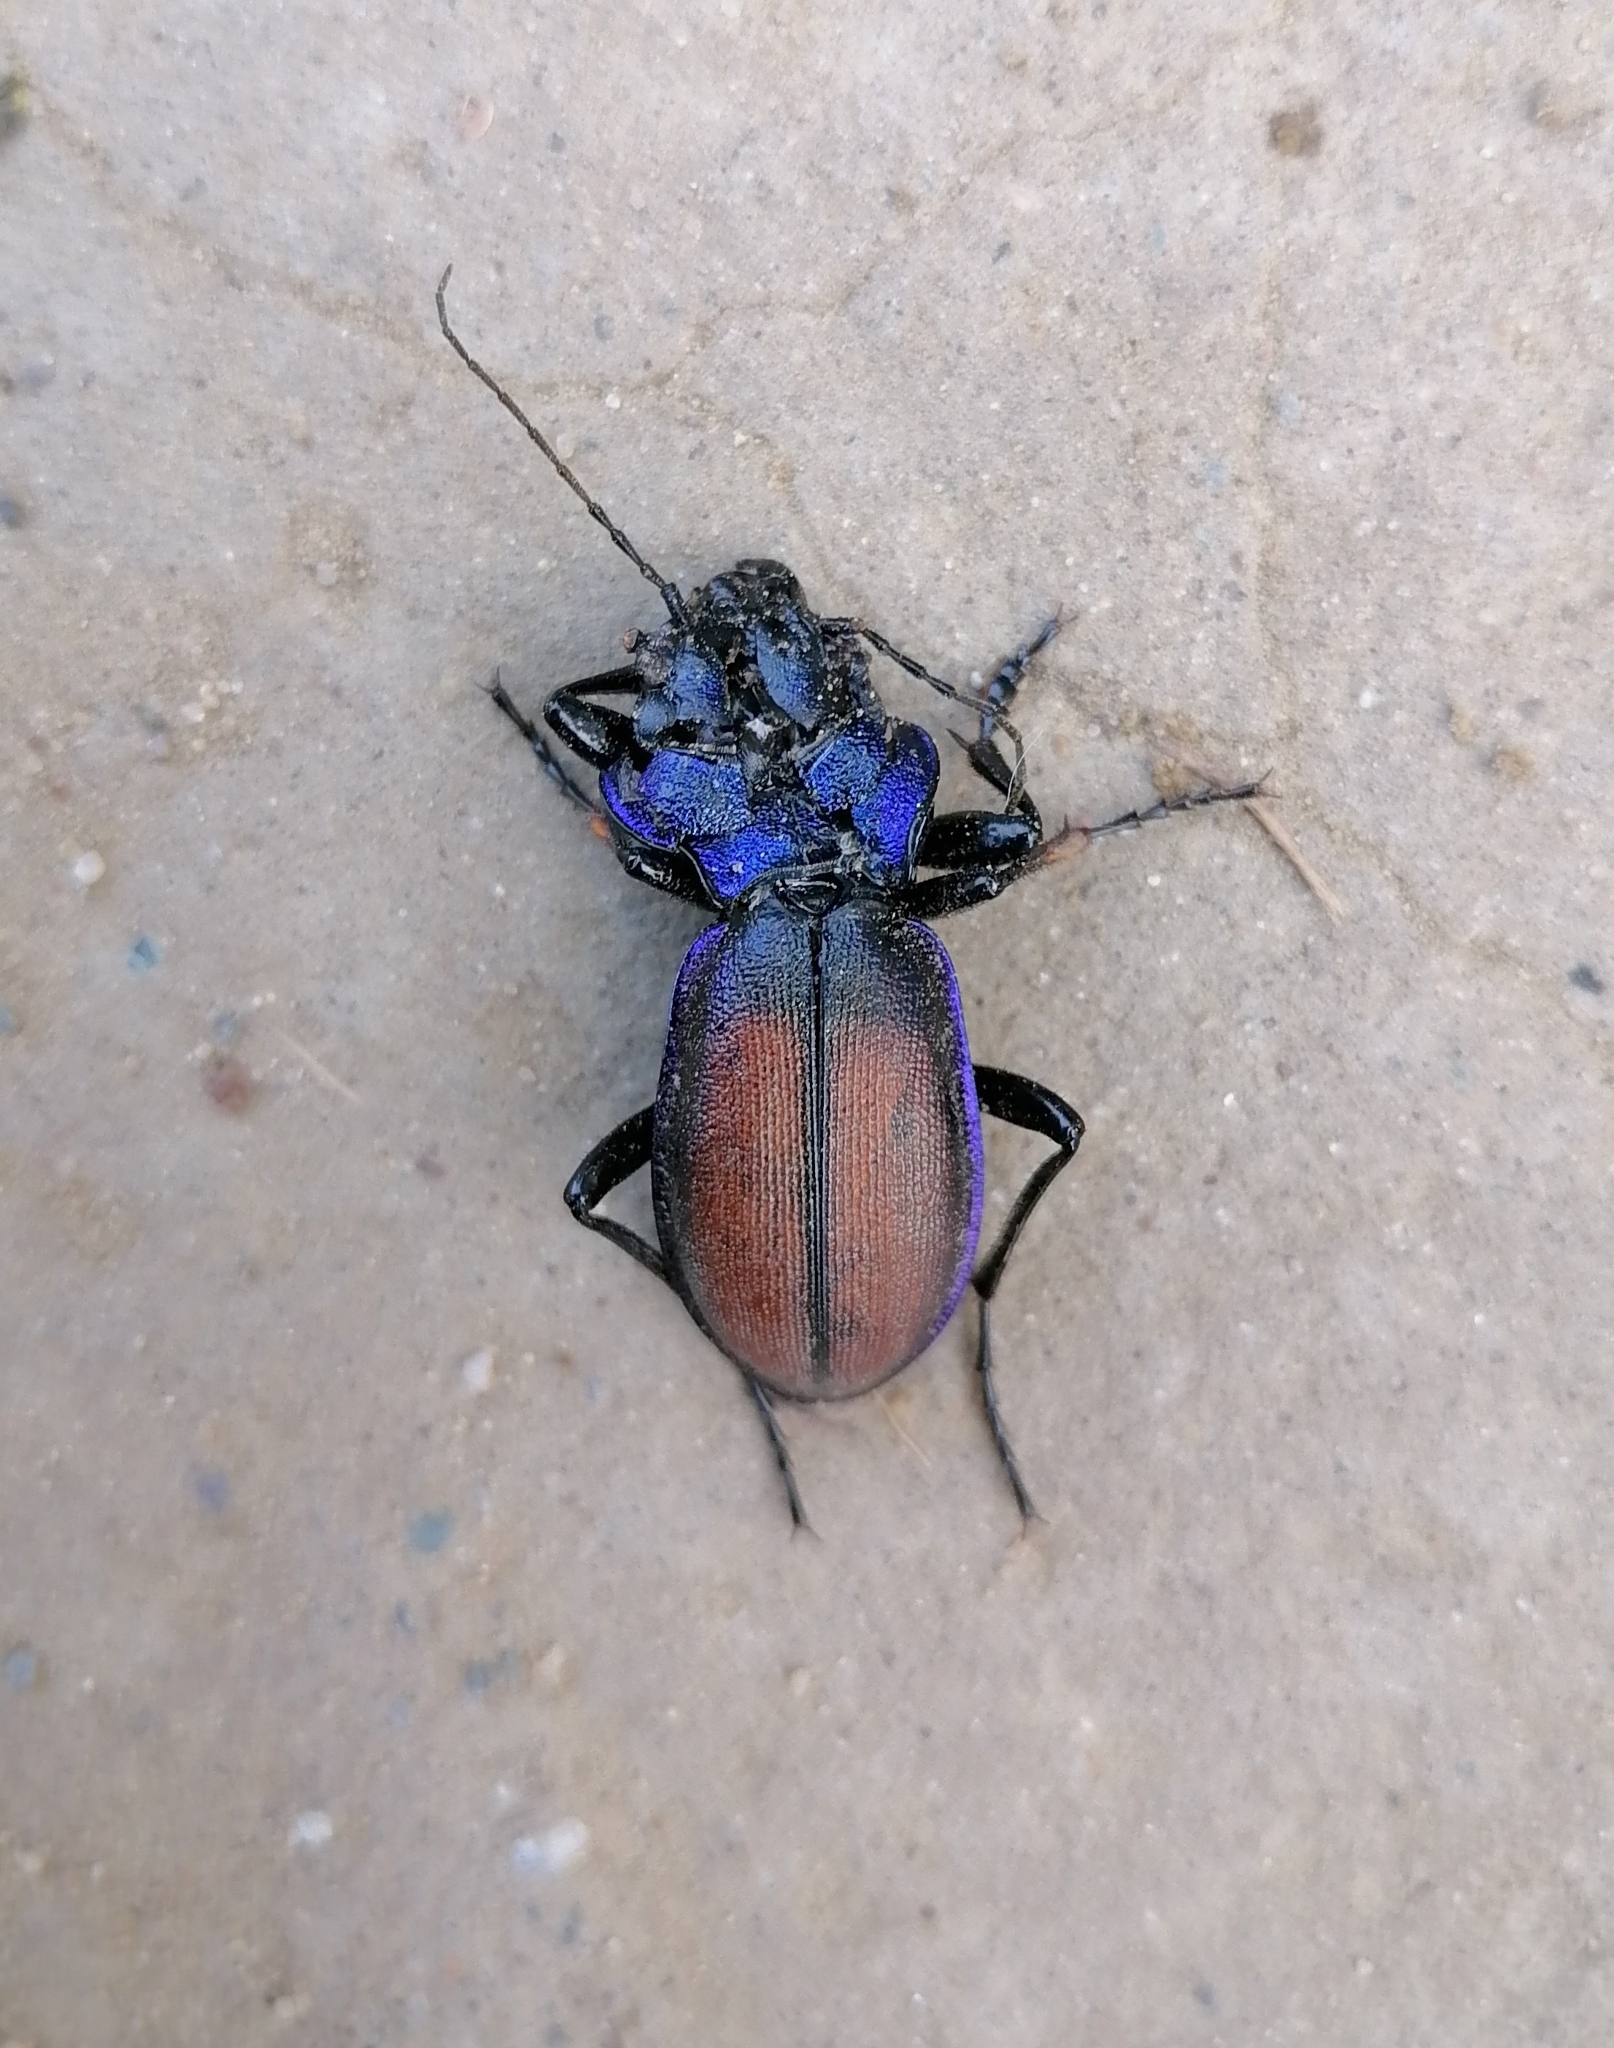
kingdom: Animalia
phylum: Arthropoda
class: Insecta
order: Coleoptera
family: Carabidae
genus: Carabus
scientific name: Carabus schoenherri
